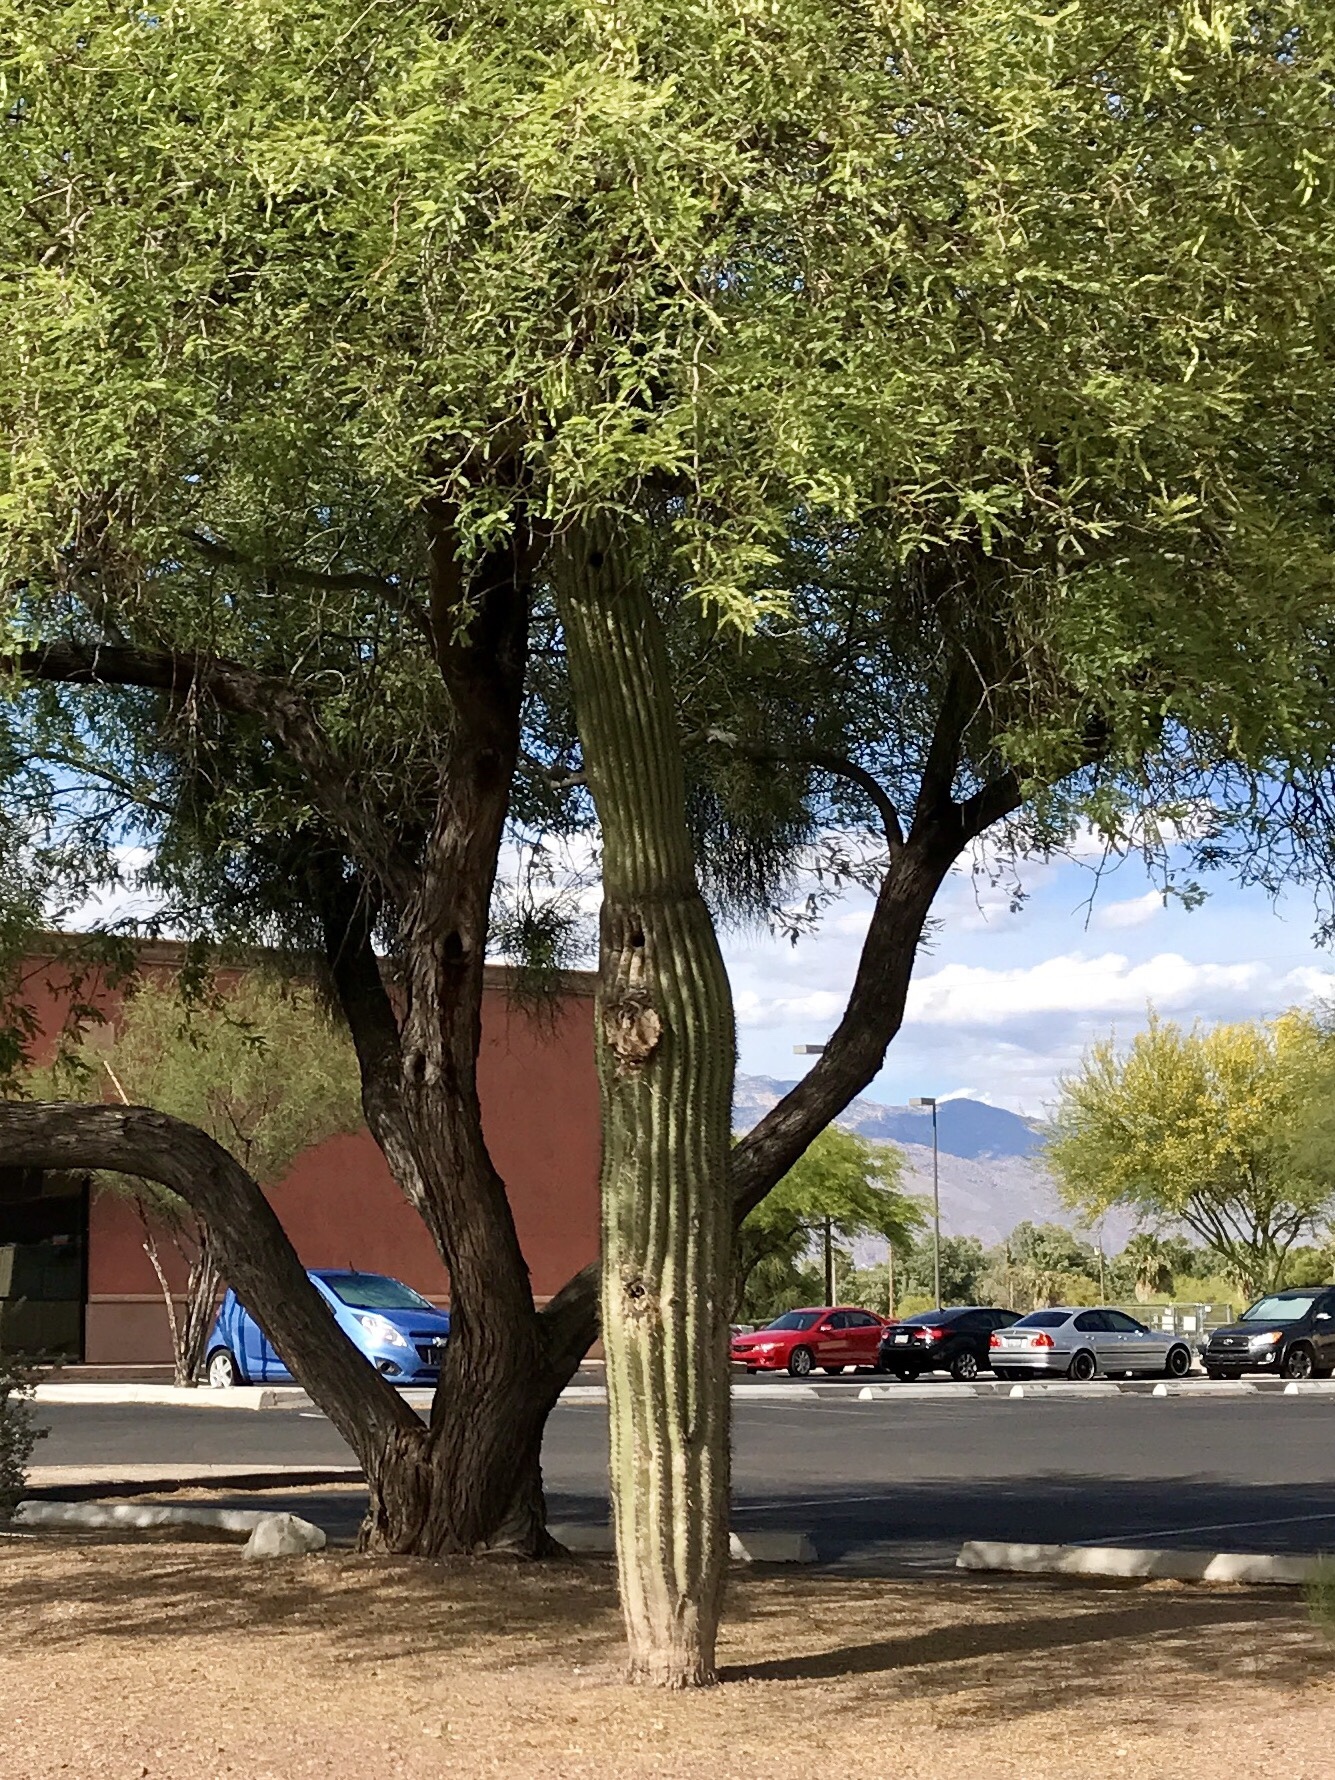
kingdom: Plantae
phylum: Tracheophyta
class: Magnoliopsida
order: Caryophyllales
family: Cactaceae
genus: Carnegiea
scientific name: Carnegiea gigantea
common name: Saguaro
